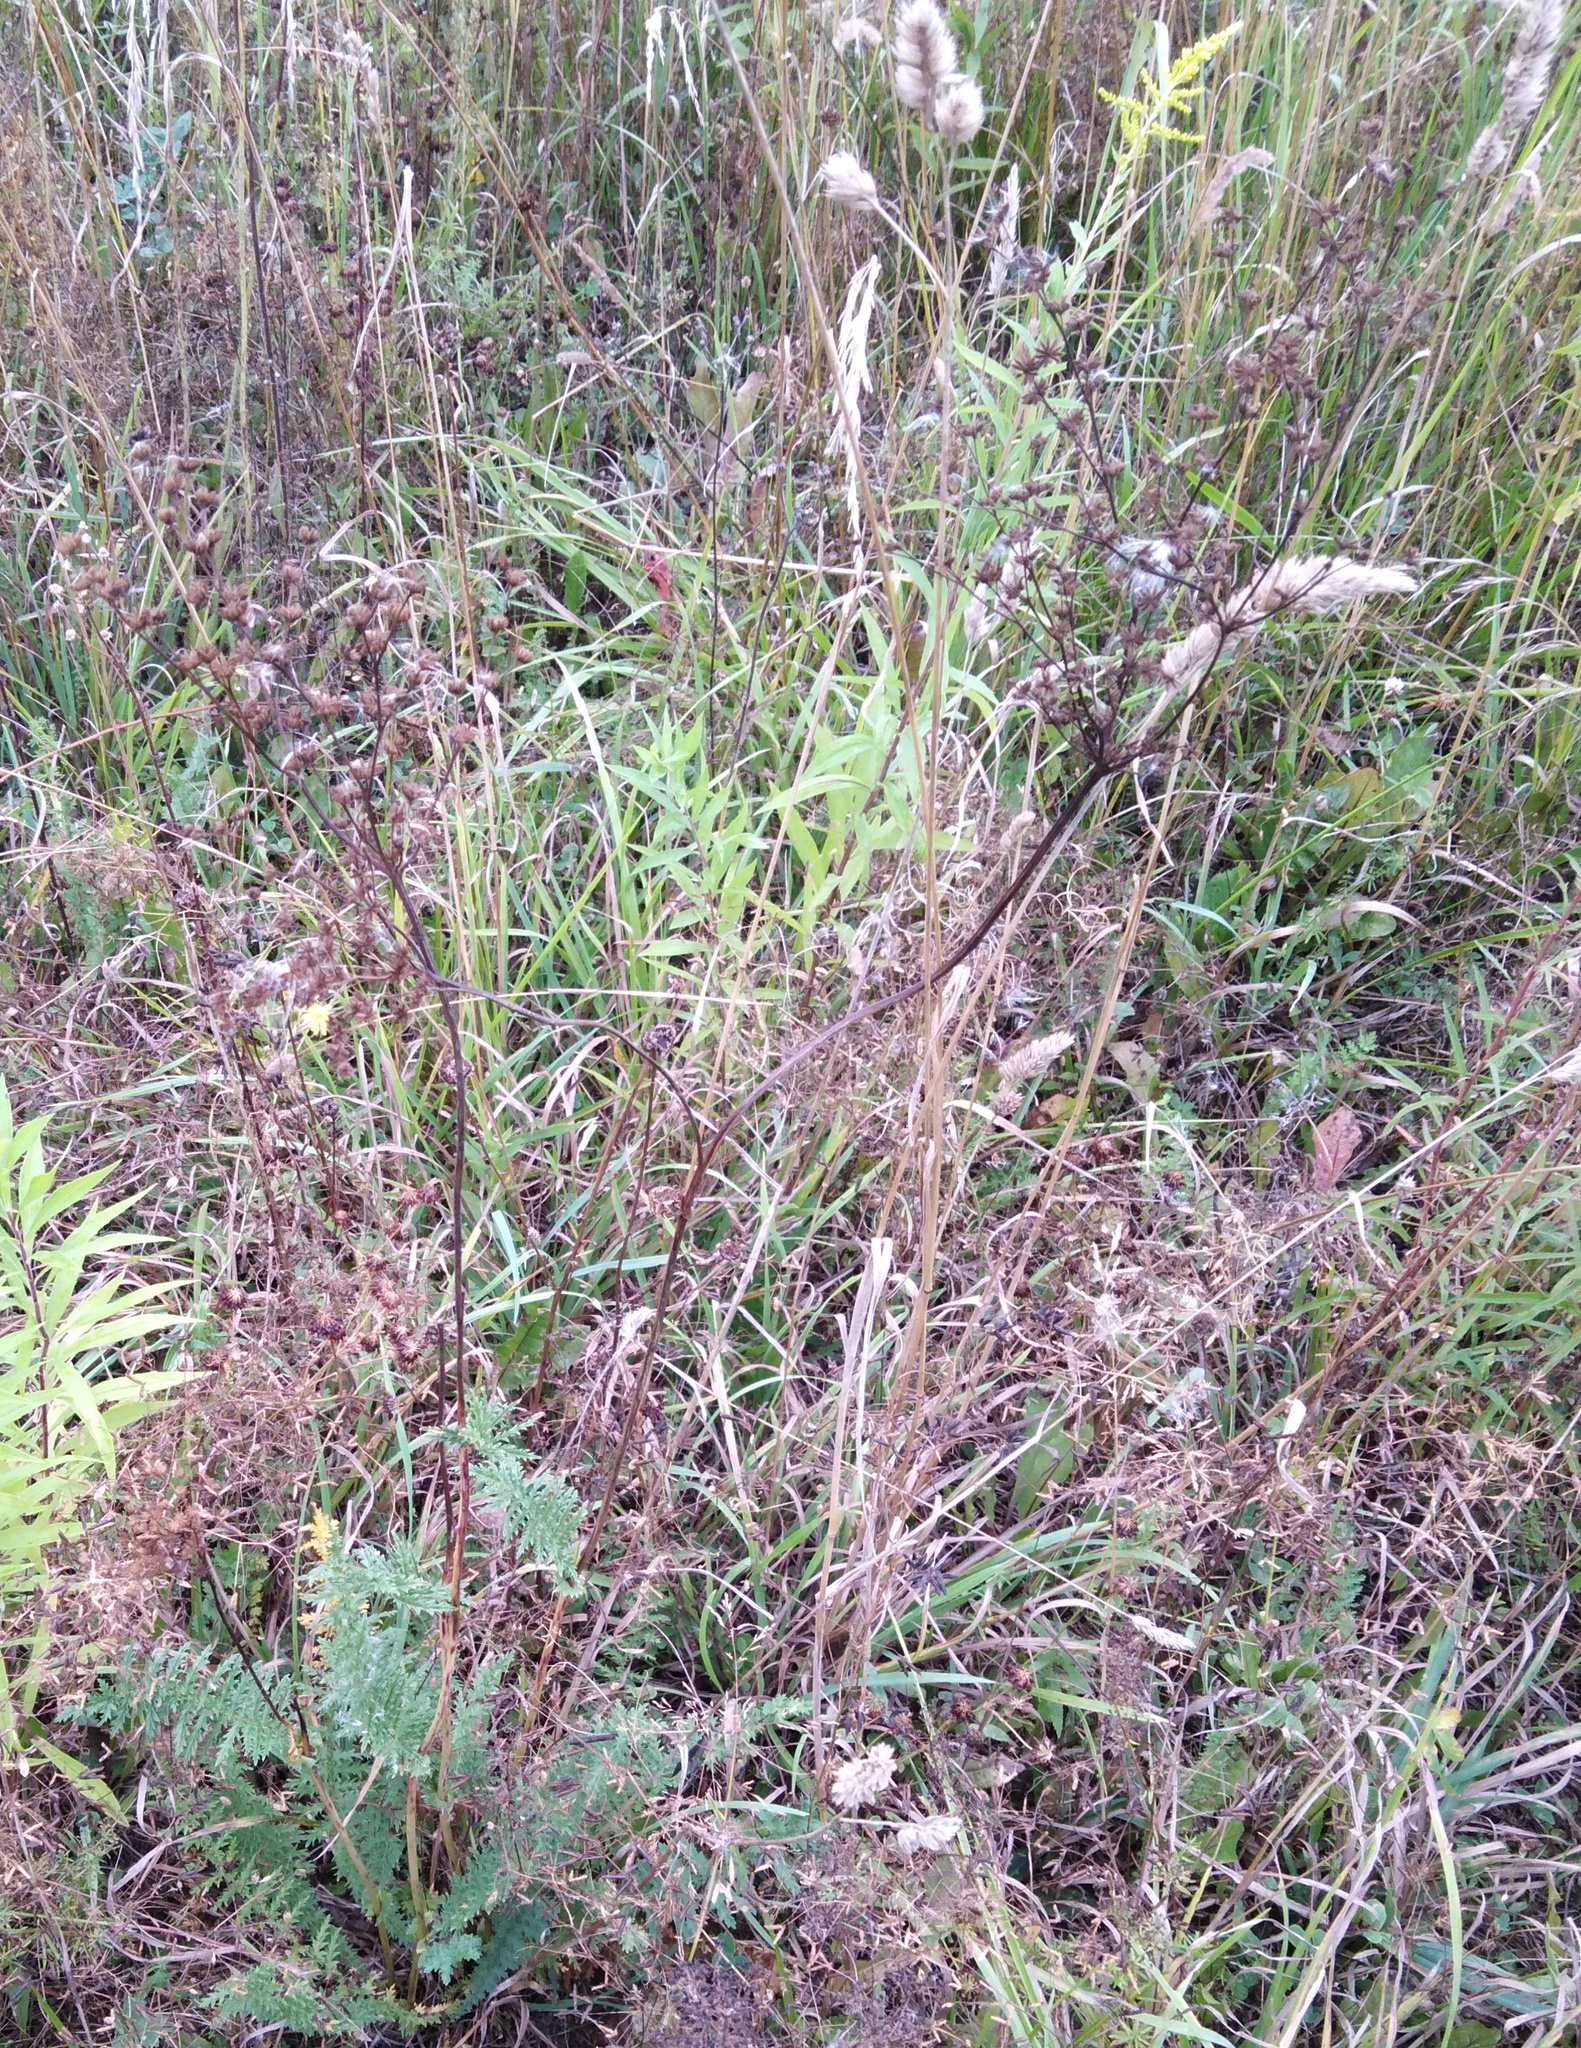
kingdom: Plantae
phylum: Tracheophyta
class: Magnoliopsida
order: Rosales
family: Rosaceae
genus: Filipendula
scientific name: Filipendula vulgaris
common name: Dropwort
